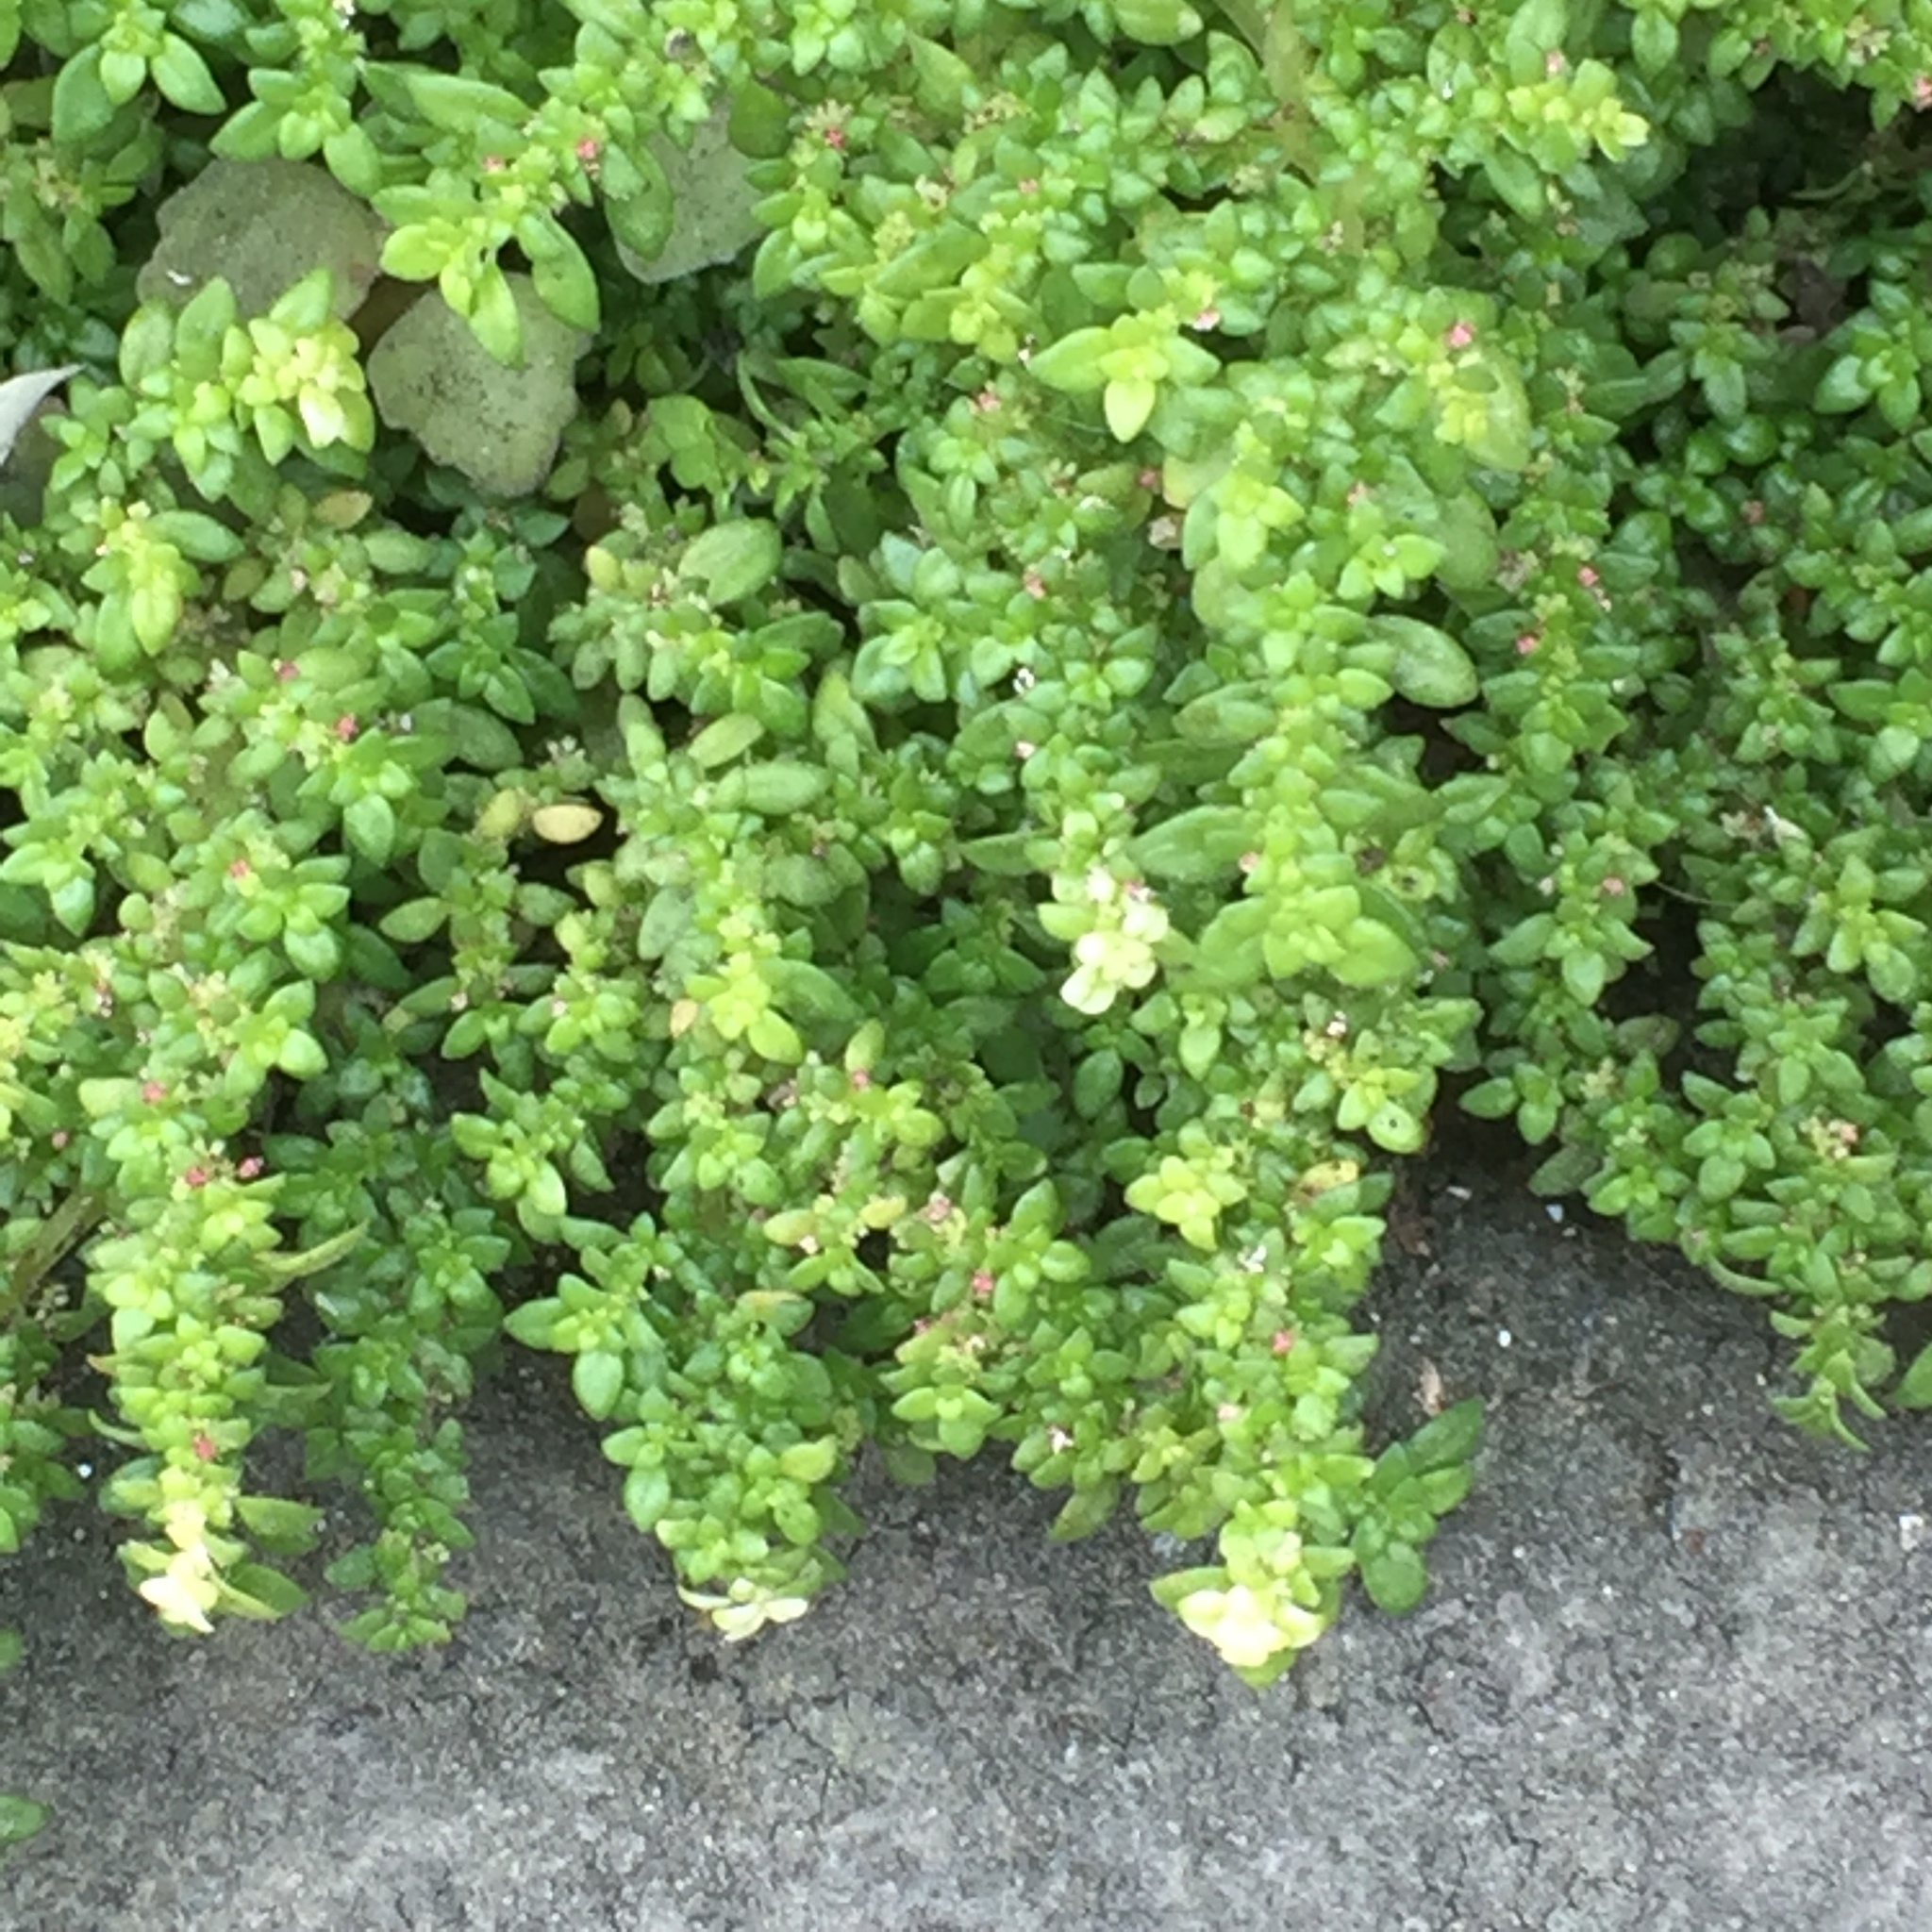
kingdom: Plantae
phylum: Tracheophyta
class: Magnoliopsida
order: Rosales
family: Urticaceae
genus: Pilea
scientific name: Pilea microphylla
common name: Artillery-plant
